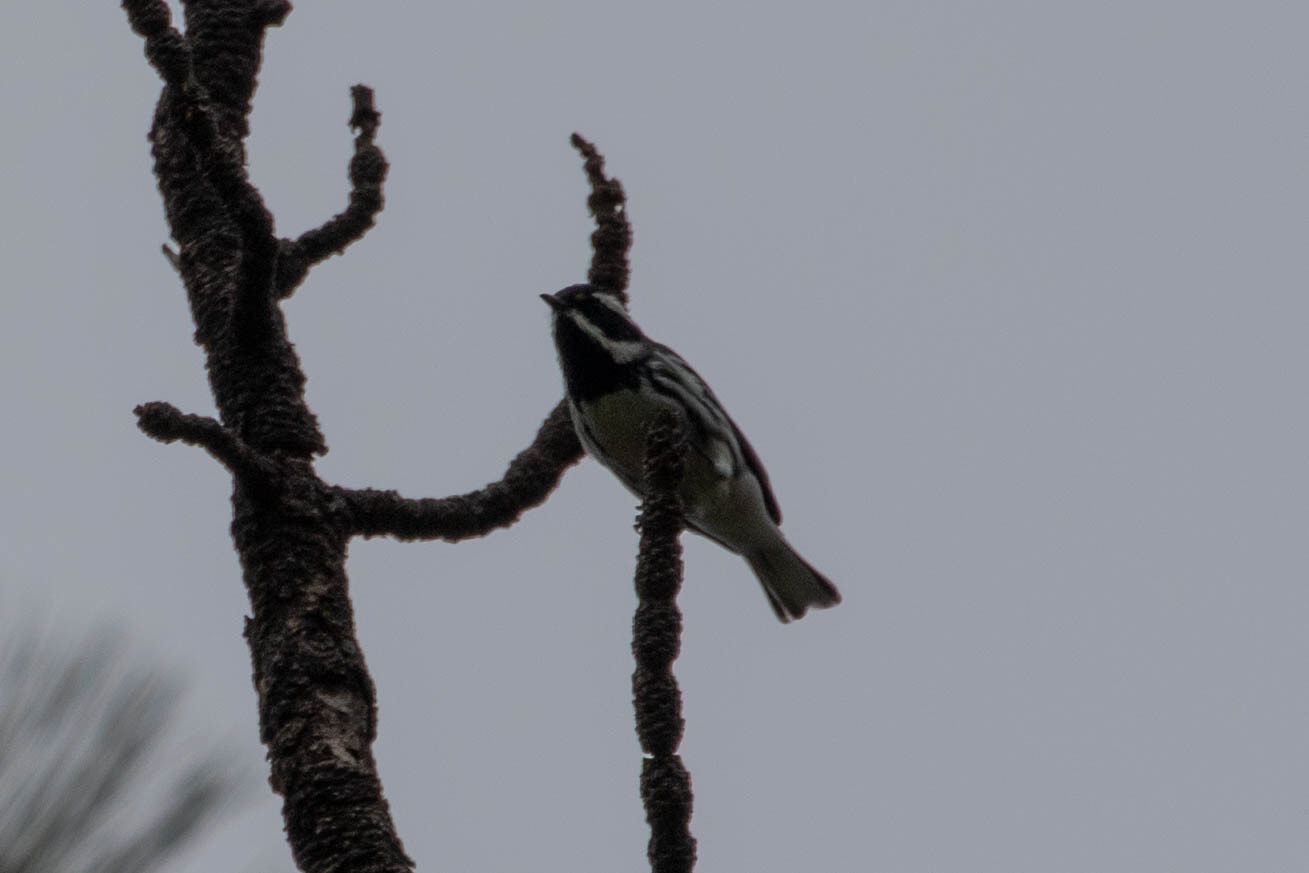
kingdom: Animalia
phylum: Chordata
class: Aves
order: Passeriformes
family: Parulidae
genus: Setophaga
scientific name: Setophaga nigrescens
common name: Black-throated gray warbler
